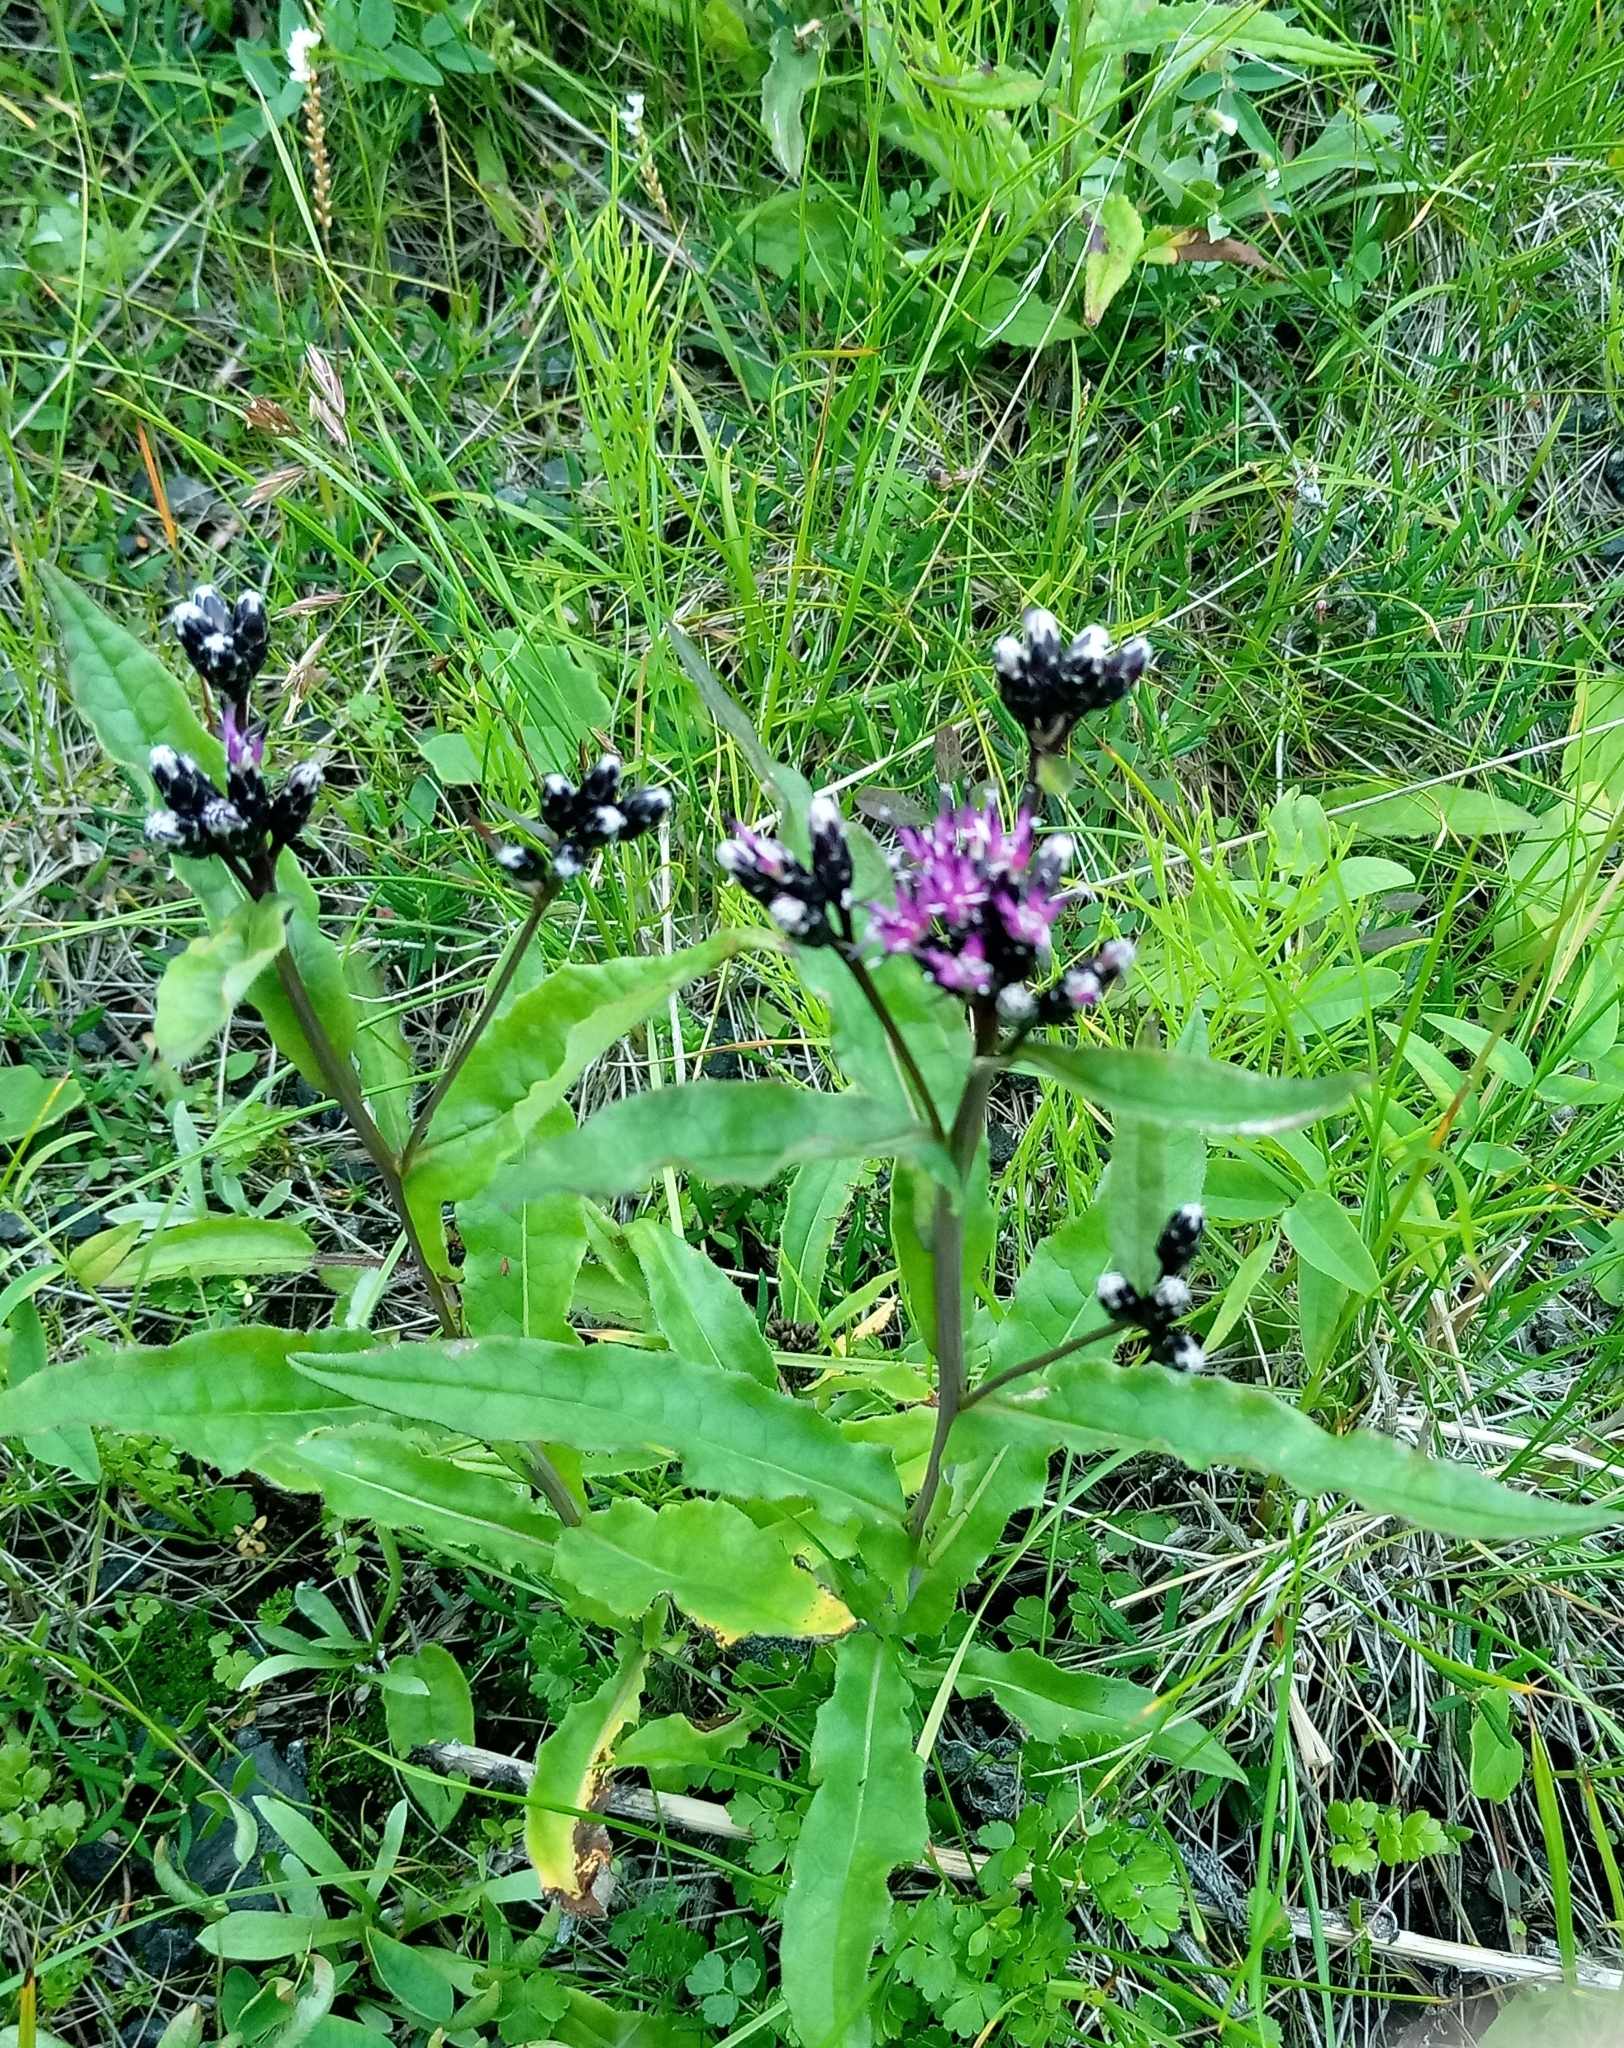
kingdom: Plantae
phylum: Tracheophyta
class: Magnoliopsida
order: Asterales
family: Asteraceae
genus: Saussurea
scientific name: Saussurea parviflora
